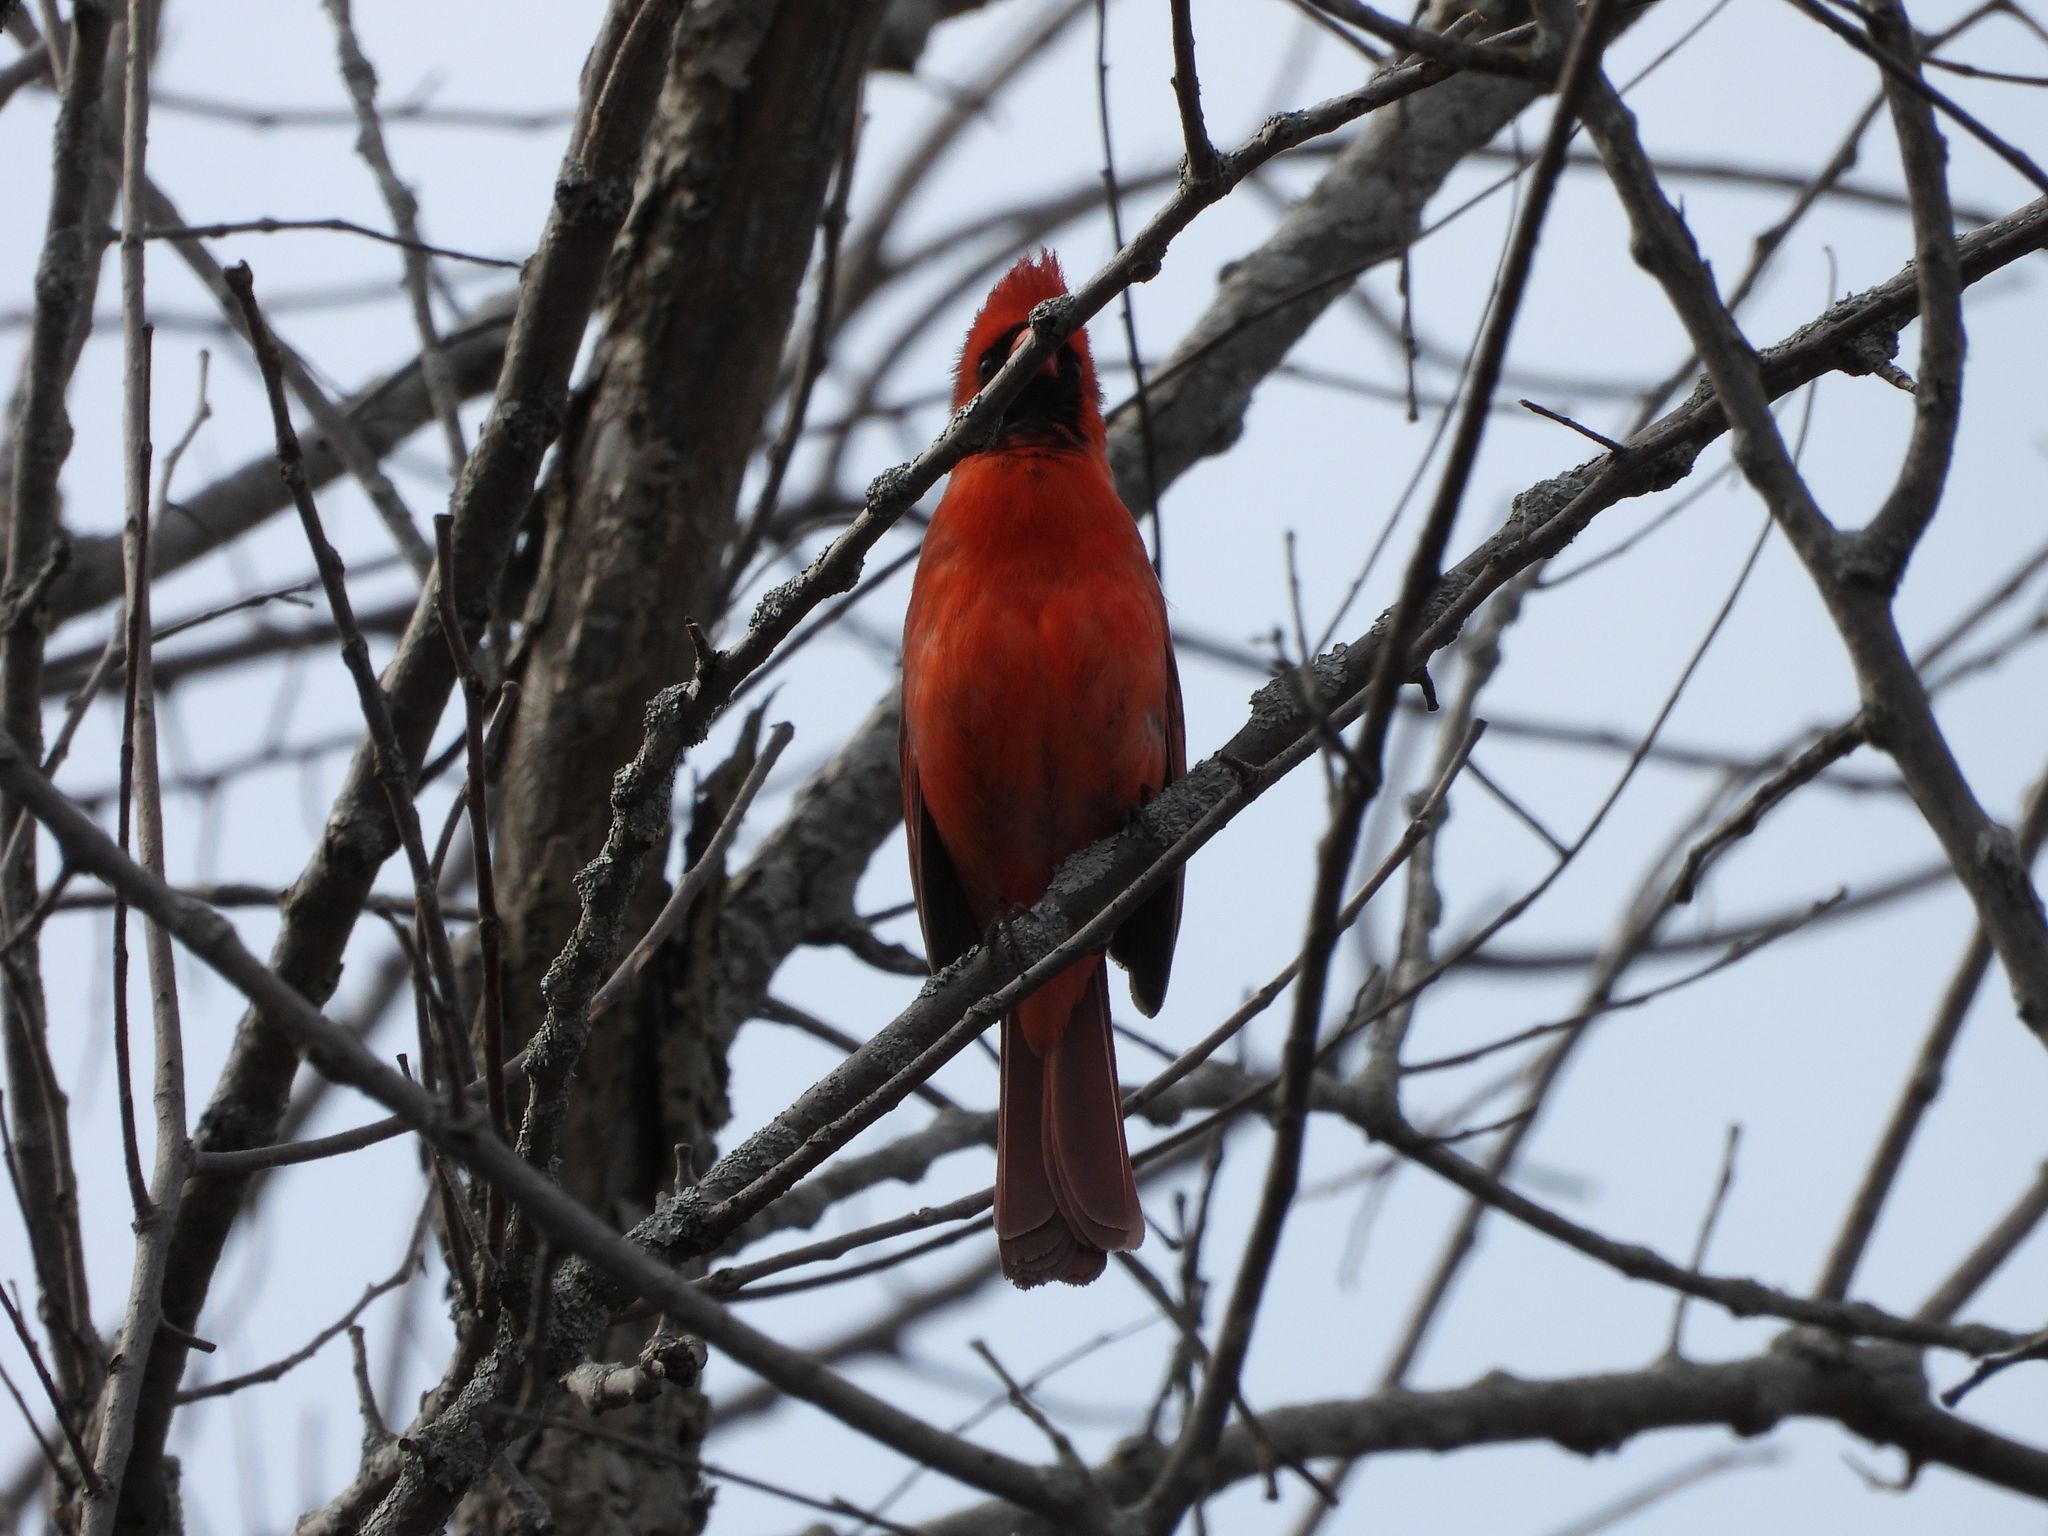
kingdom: Animalia
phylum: Chordata
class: Aves
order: Passeriformes
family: Cardinalidae
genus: Cardinalis
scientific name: Cardinalis cardinalis
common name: Northern cardinal
